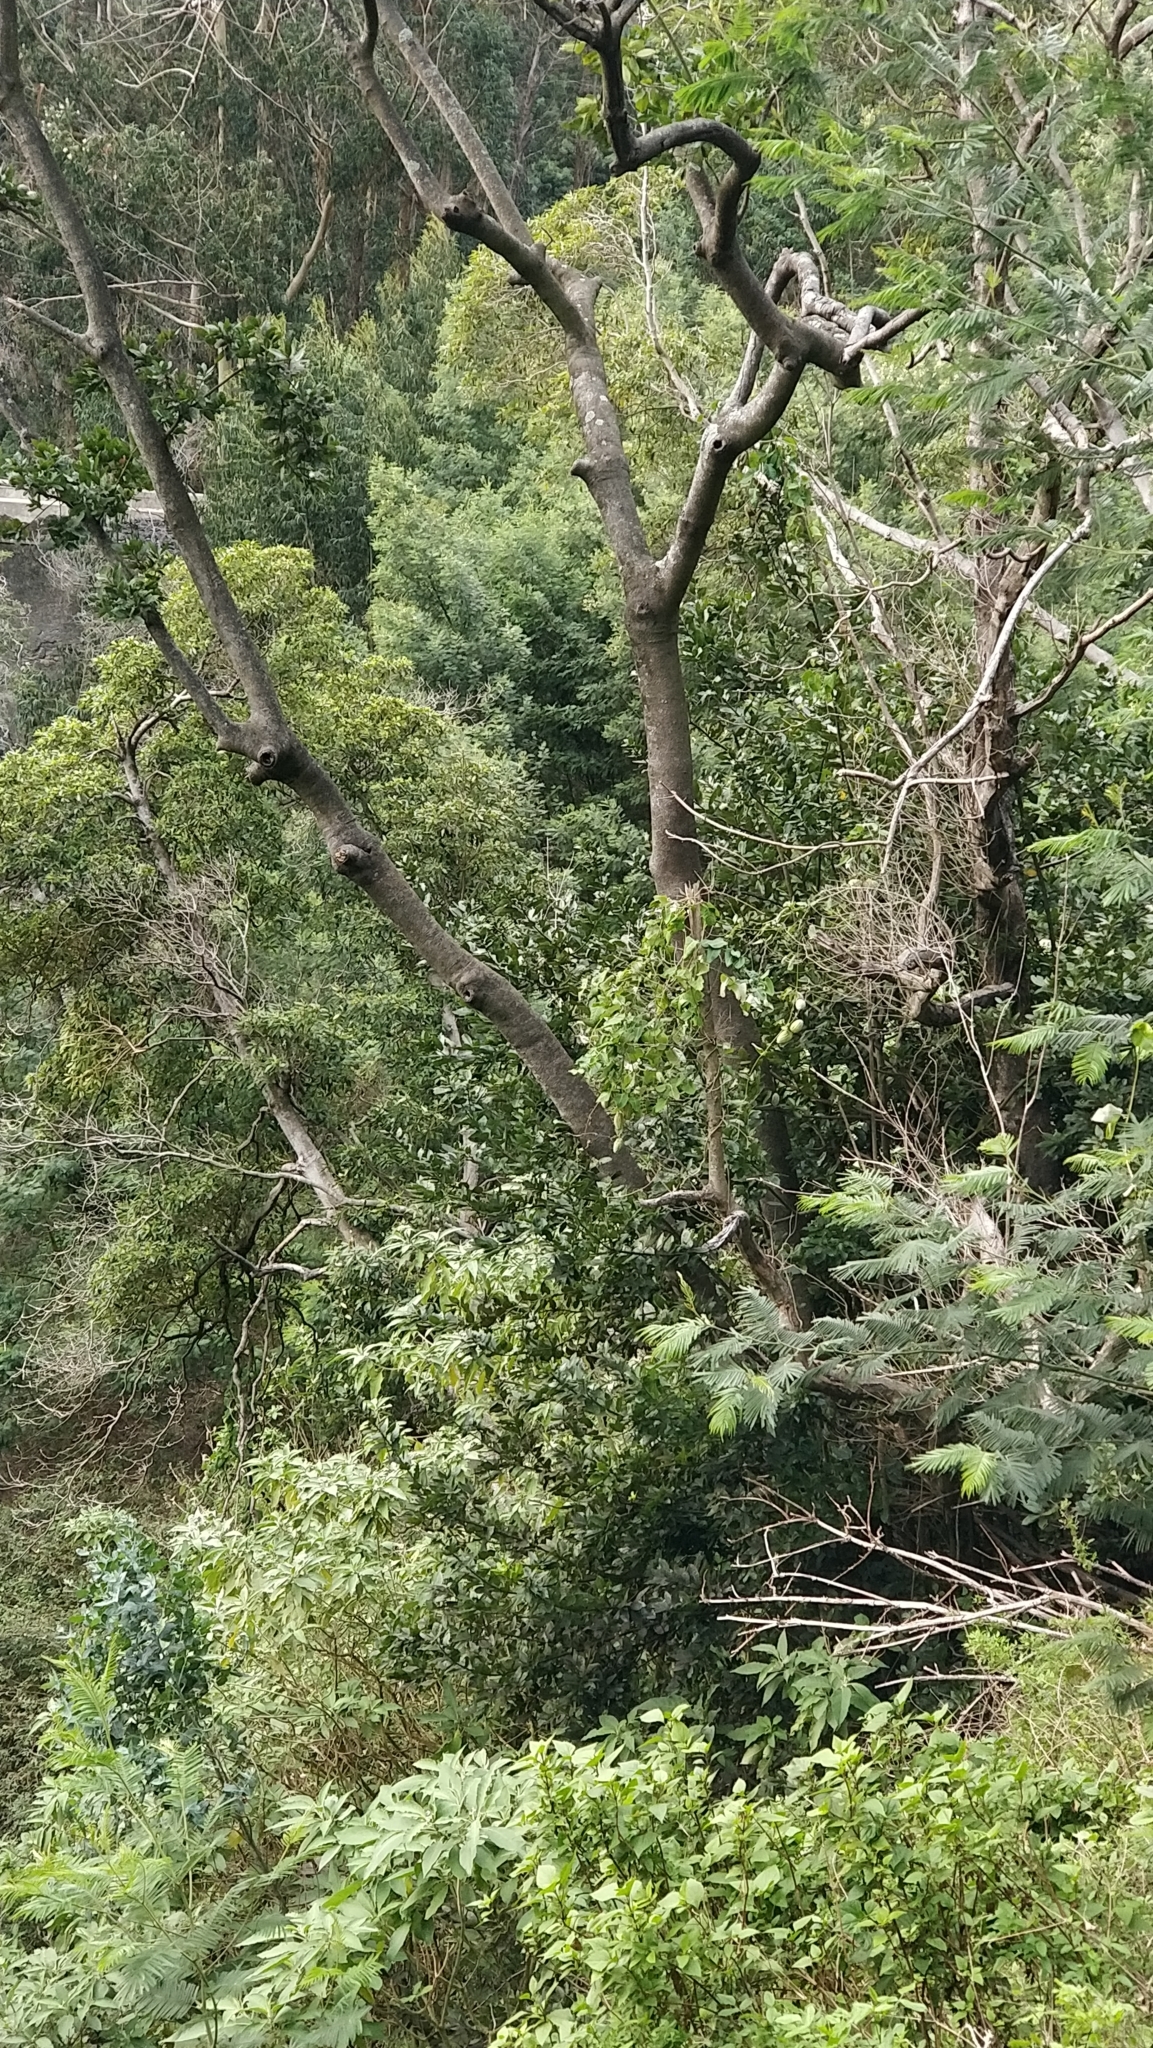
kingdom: Plantae
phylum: Tracheophyta
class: Magnoliopsida
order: Laurales
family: Lauraceae
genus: Laurus
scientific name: Laurus novocanariensis
